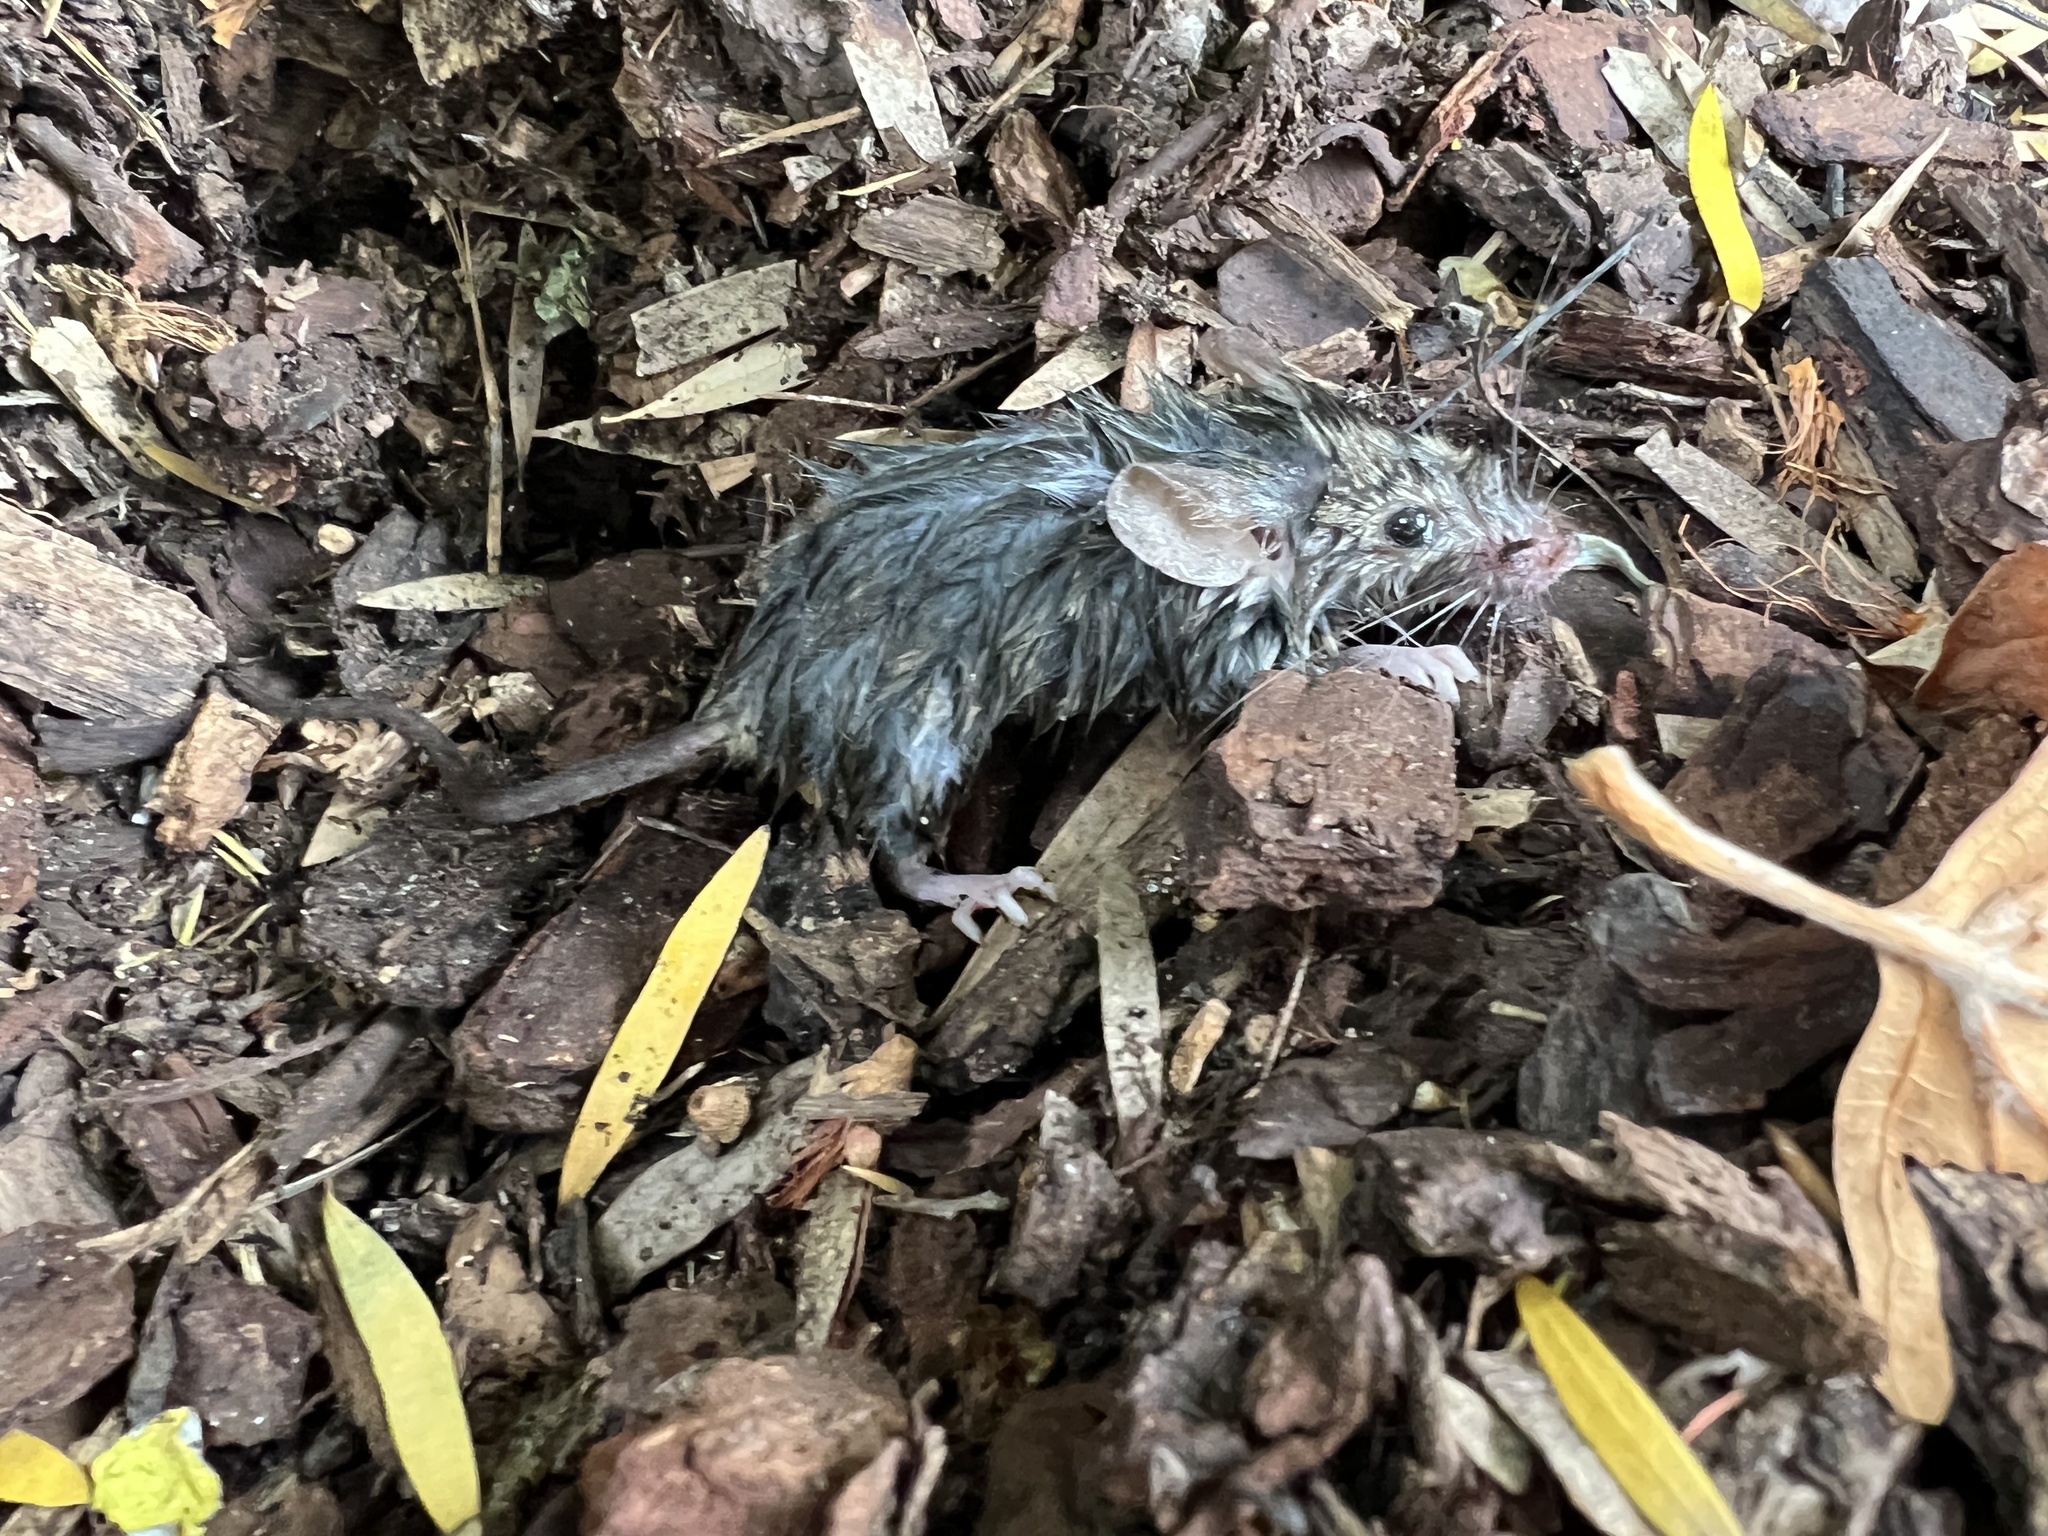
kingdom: Animalia
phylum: Chordata
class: Mammalia
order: Rodentia
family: Muridae
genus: Mus
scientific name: Mus musculus
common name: House mouse
